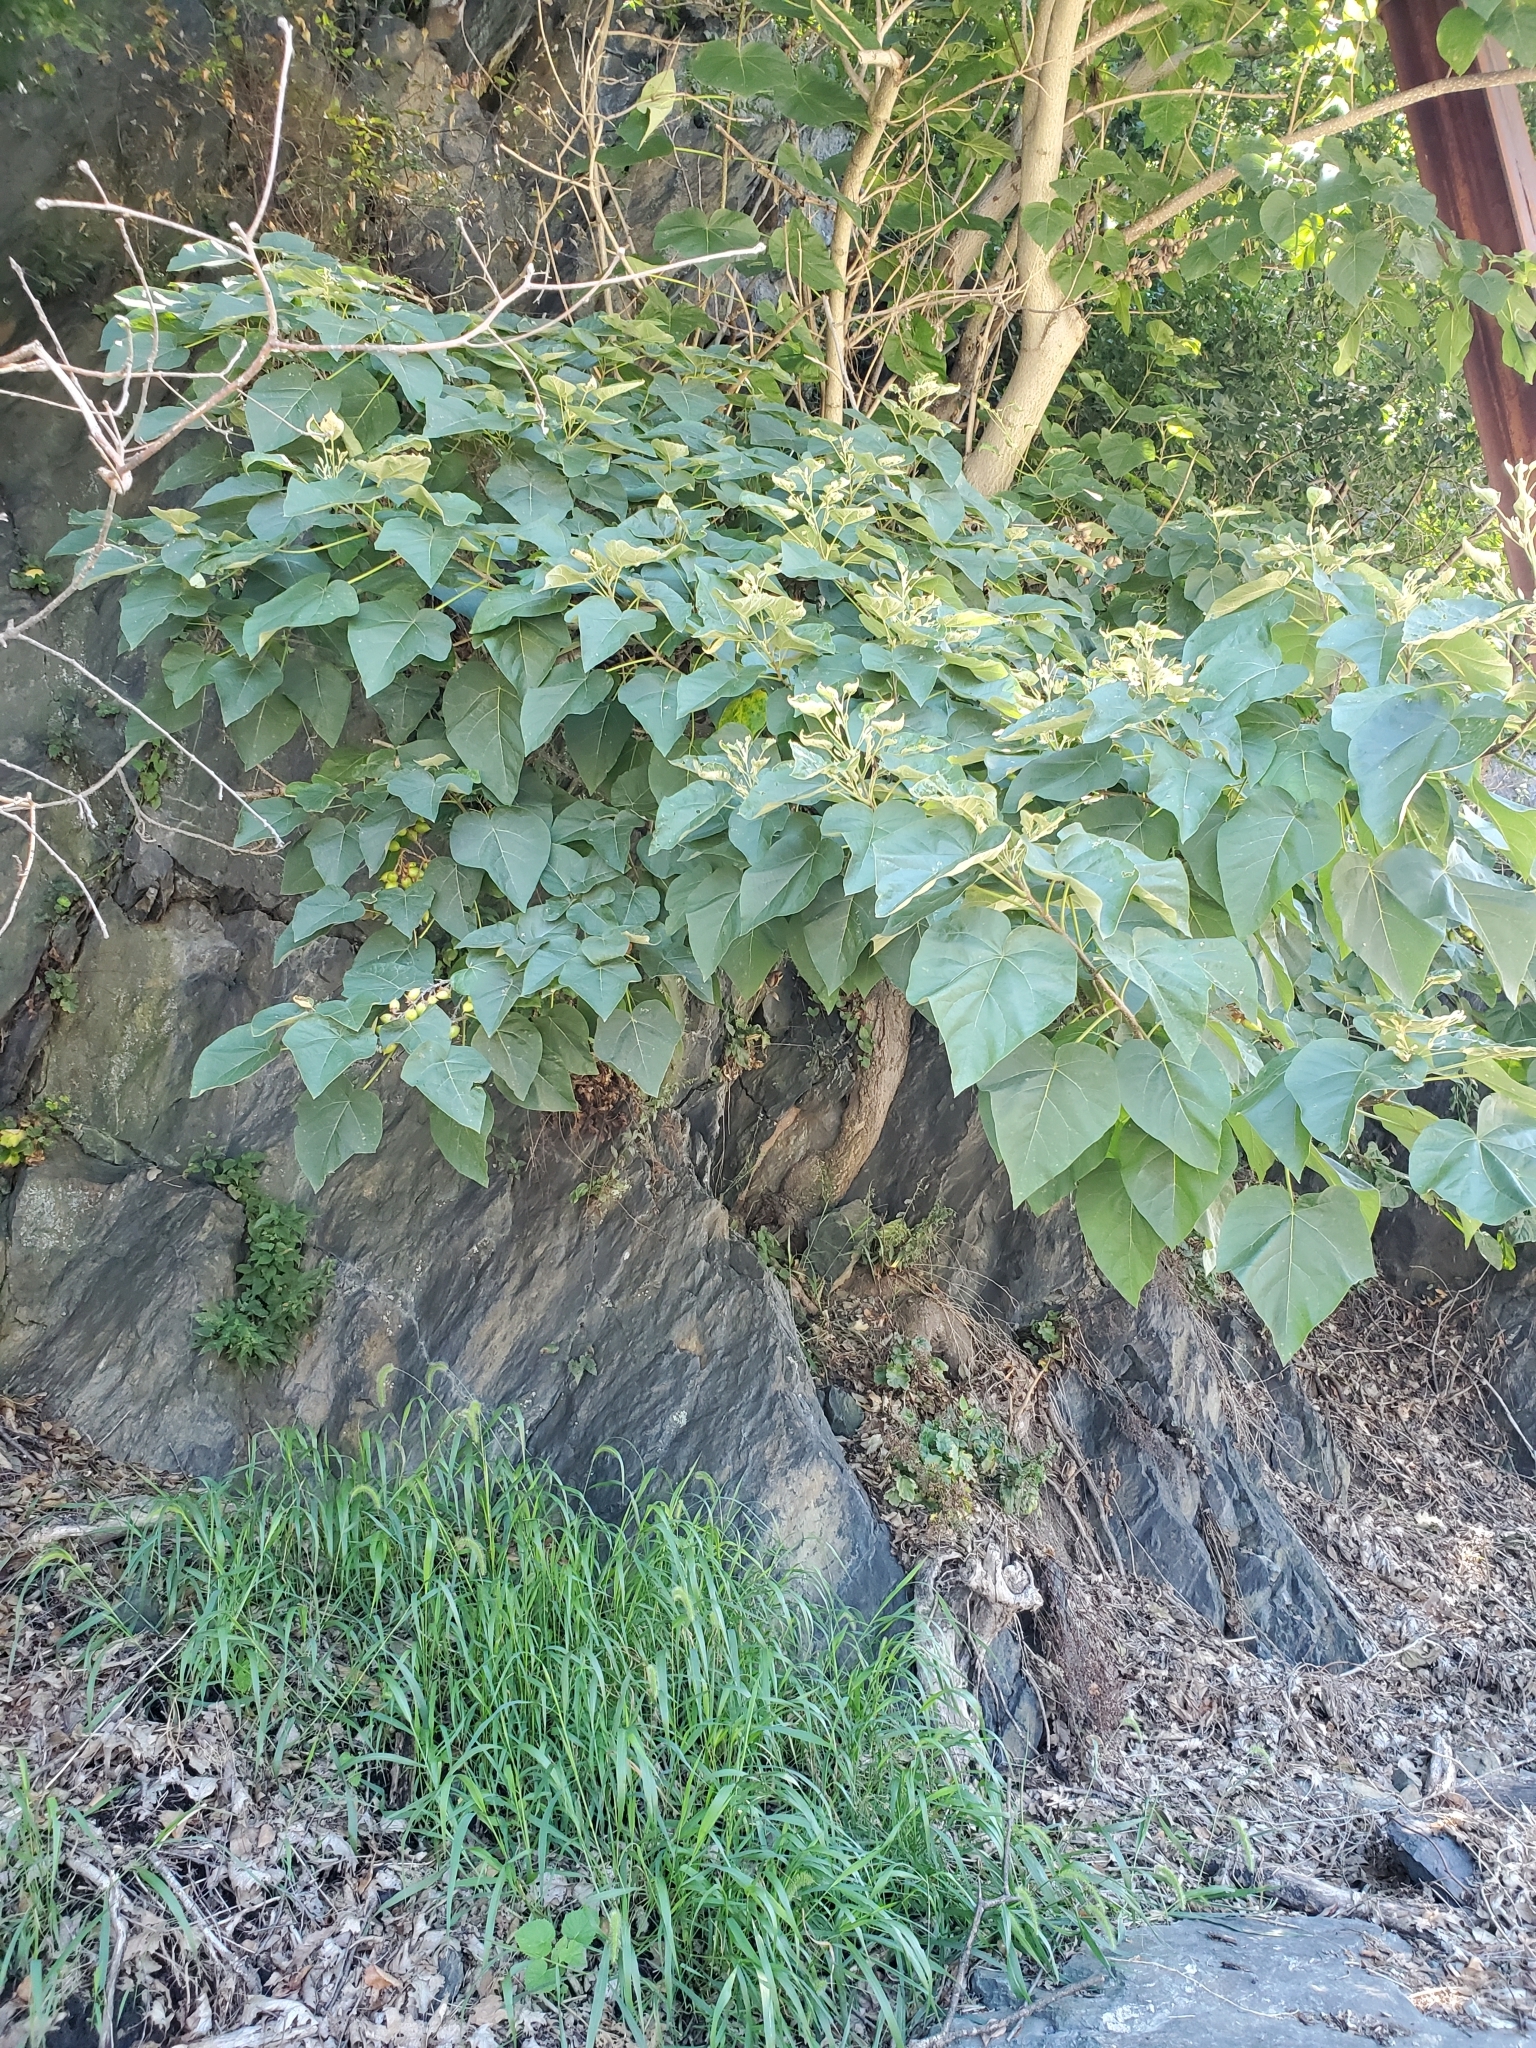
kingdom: Plantae
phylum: Tracheophyta
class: Magnoliopsida
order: Lamiales
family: Paulowniaceae
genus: Paulownia
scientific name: Paulownia tomentosa
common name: Foxglove-tree
